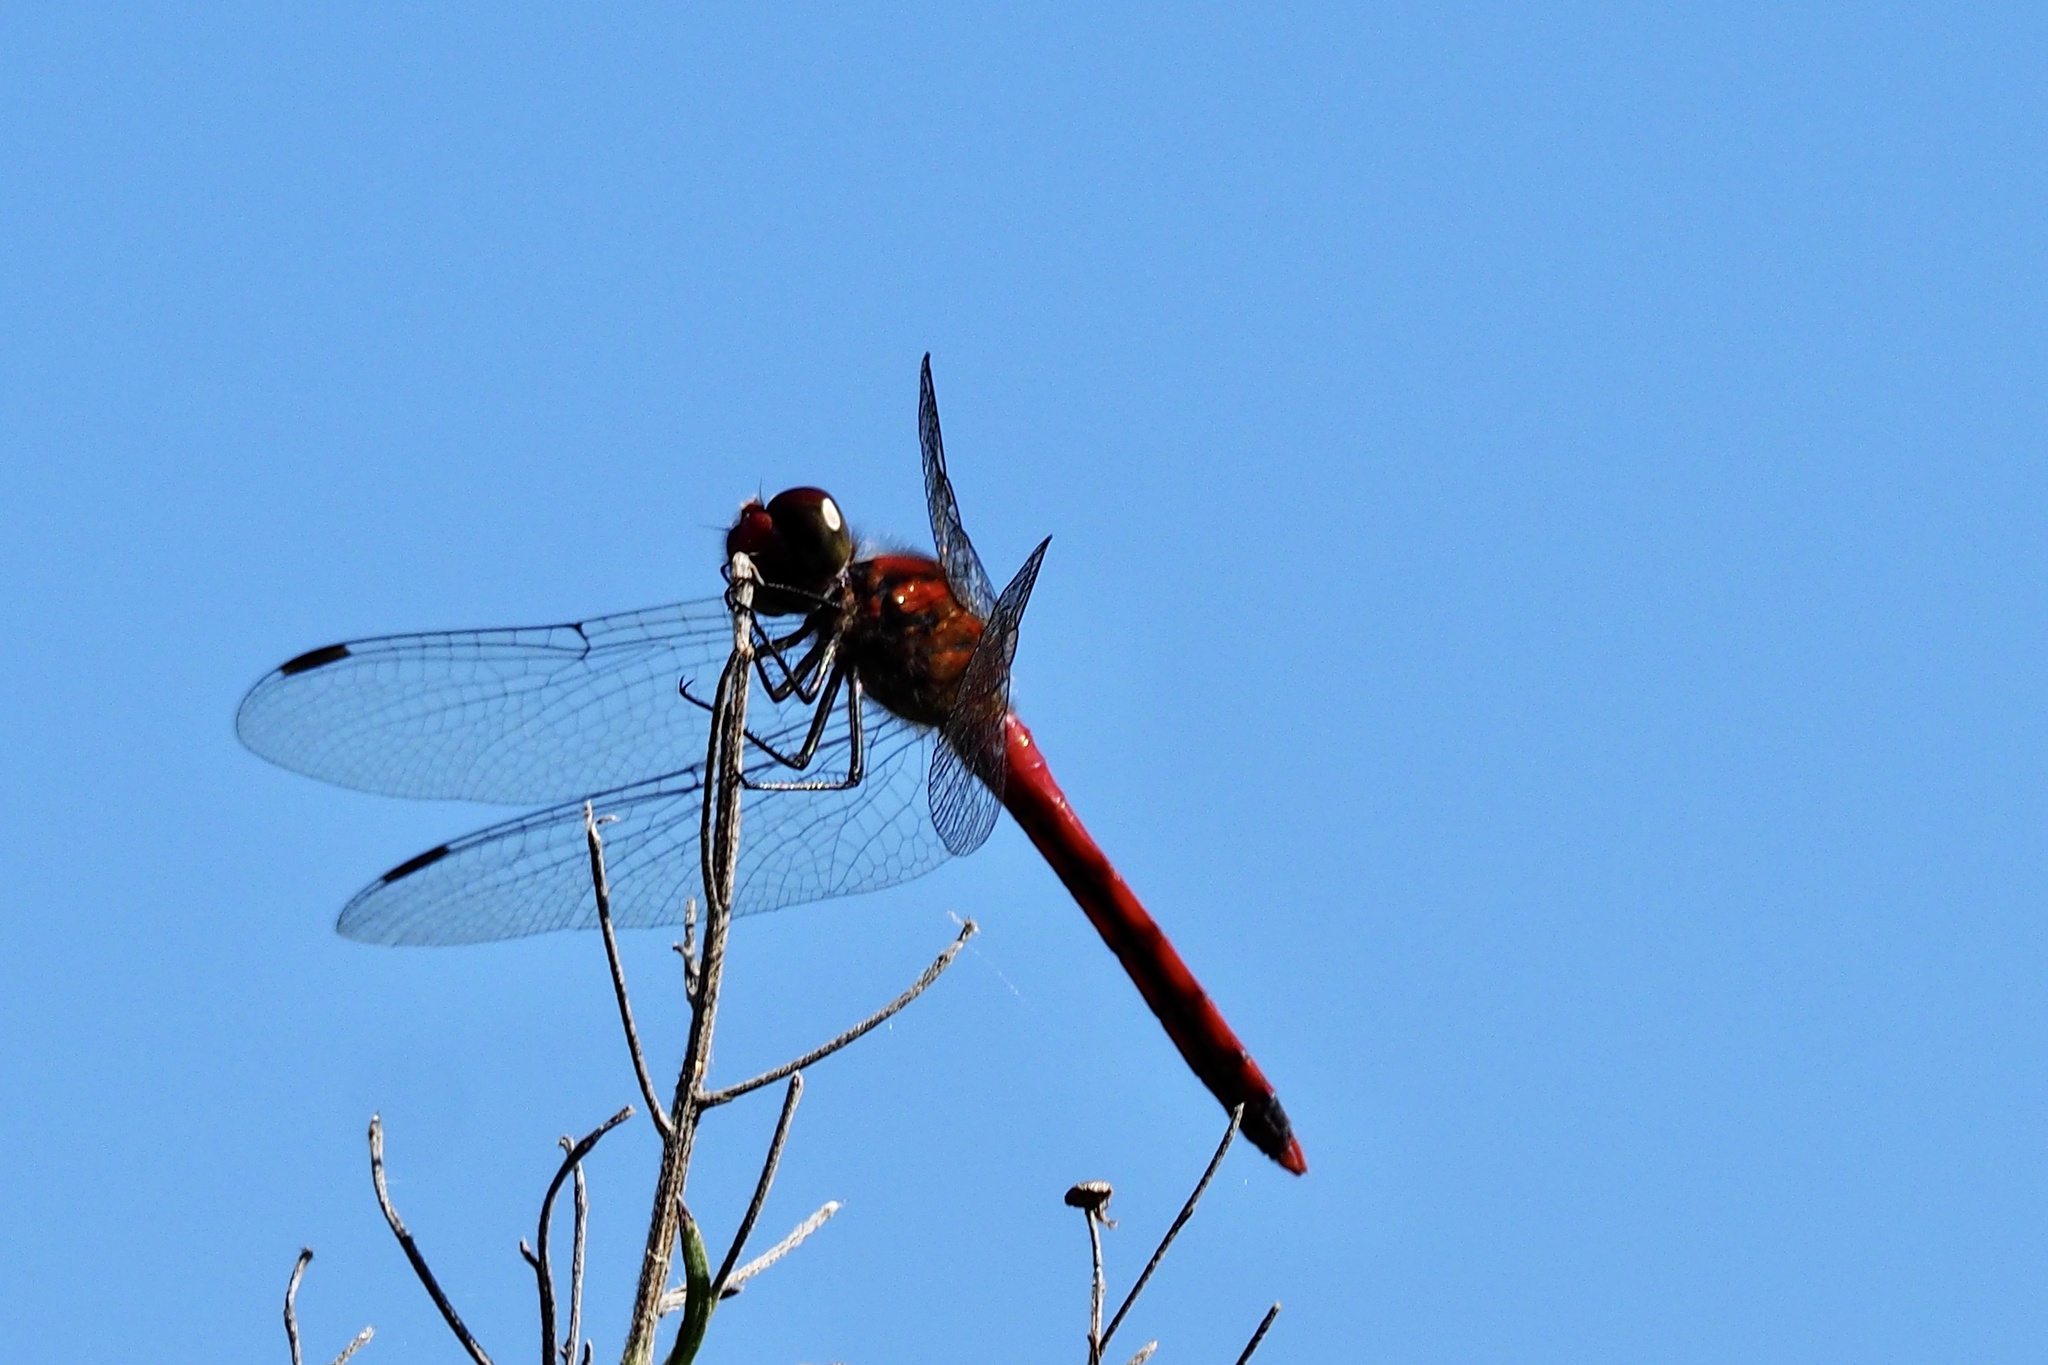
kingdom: Animalia
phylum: Arthropoda
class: Insecta
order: Odonata
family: Libellulidae
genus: Sympetrum
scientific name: Sympetrum darwinianum
